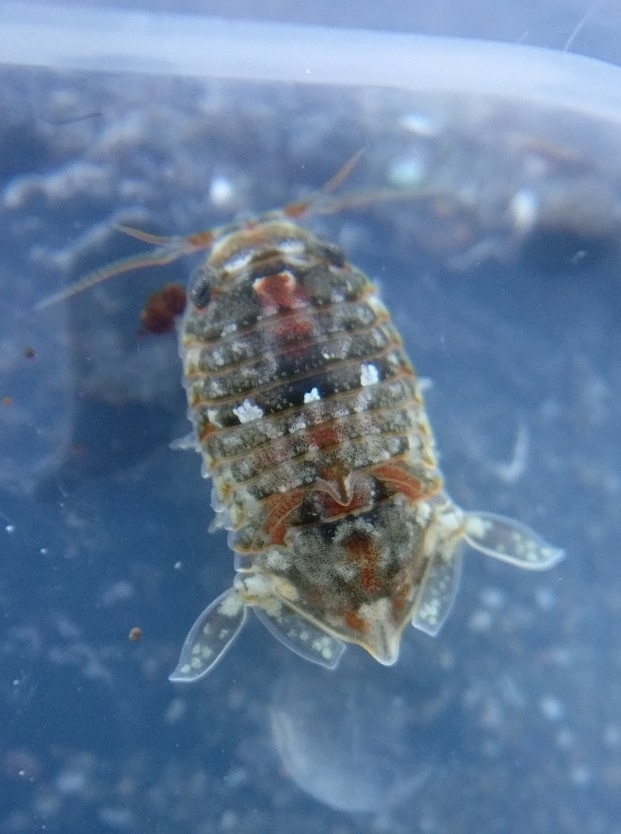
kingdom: Animalia
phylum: Arthropoda
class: Malacostraca
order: Isopoda
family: Sphaeromatidae
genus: Isocladus
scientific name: Isocladus armatus
